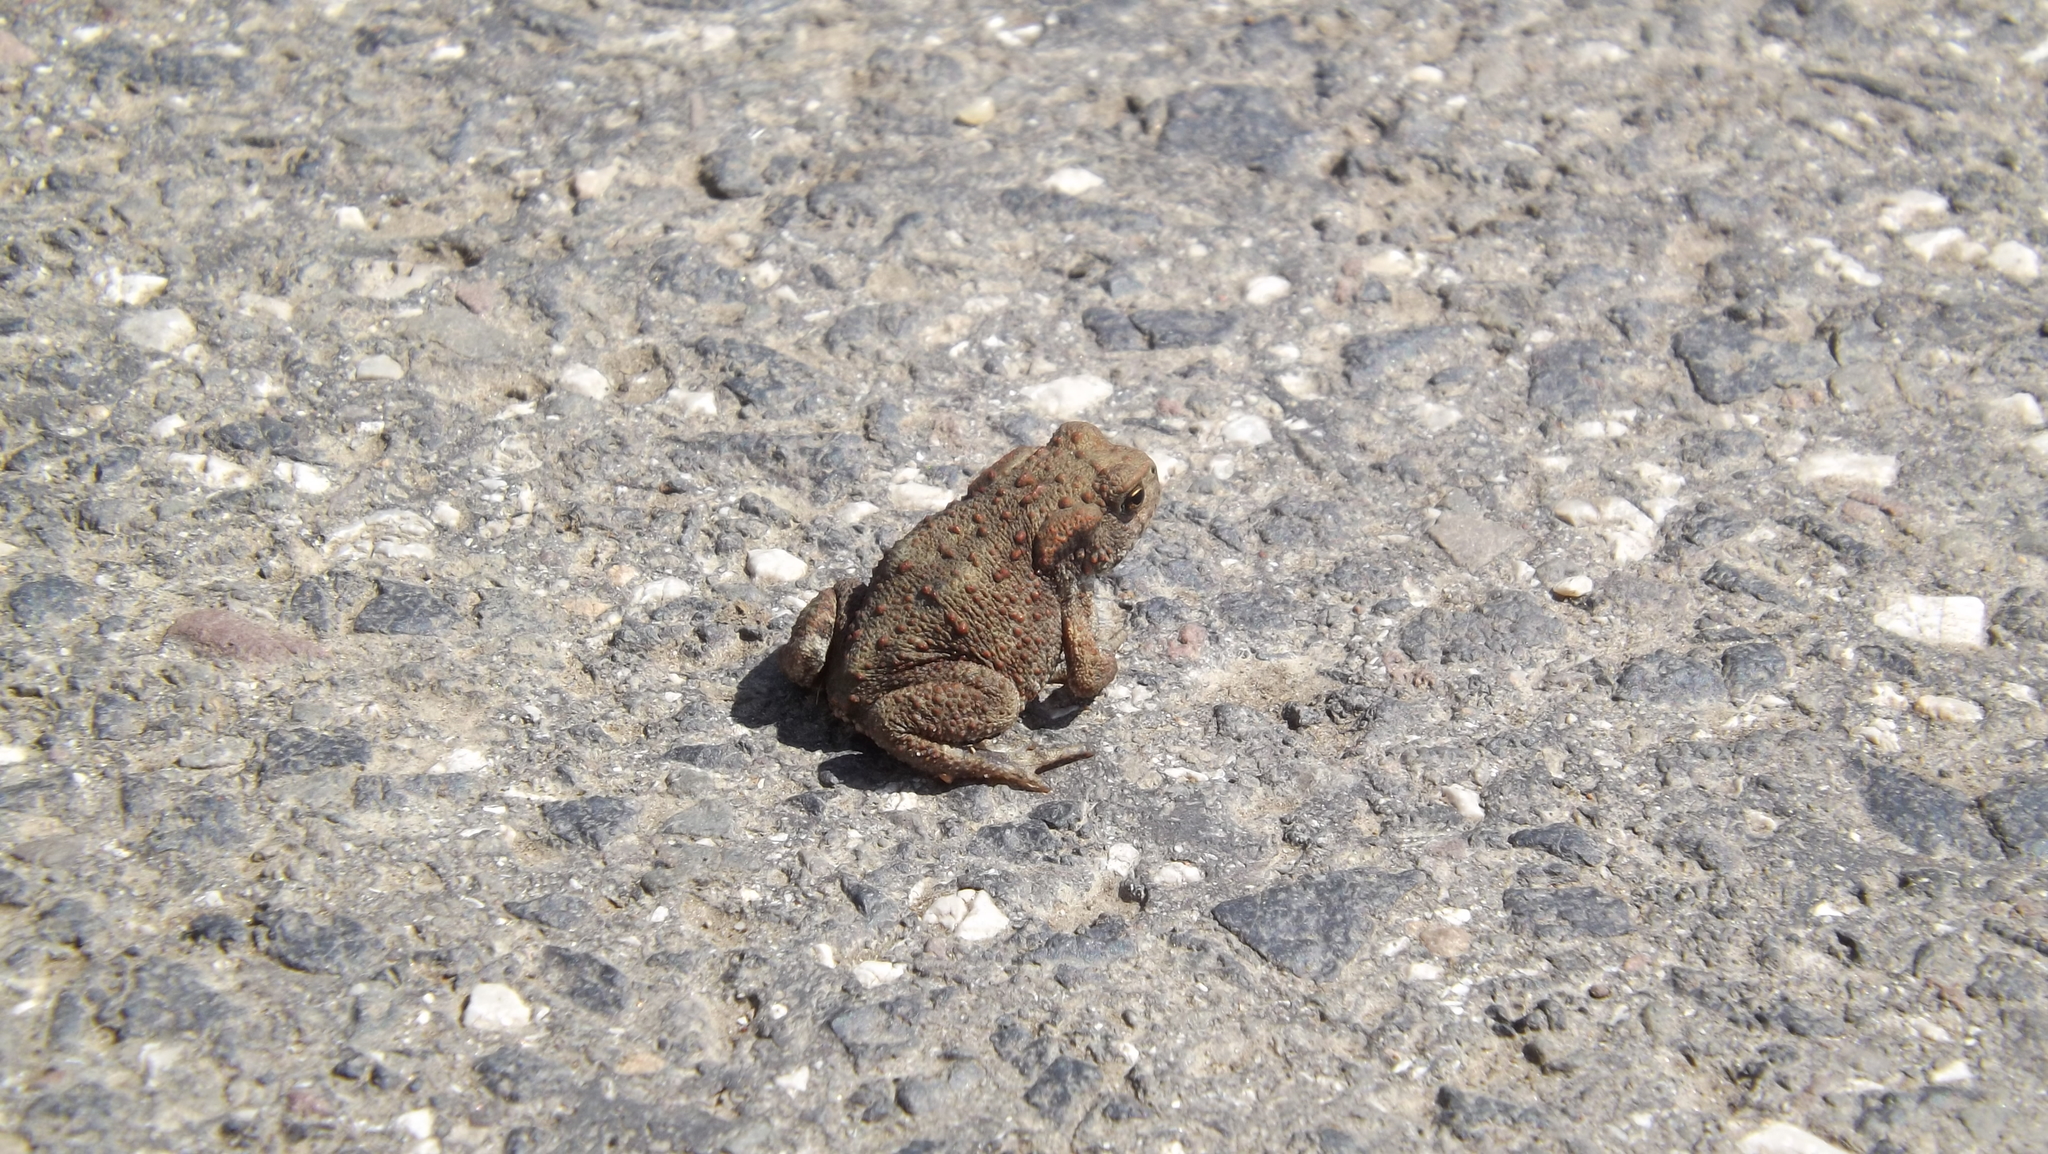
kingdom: Animalia
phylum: Chordata
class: Amphibia
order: Anura
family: Bufonidae
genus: Bufo
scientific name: Bufo bufo
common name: Common toad
